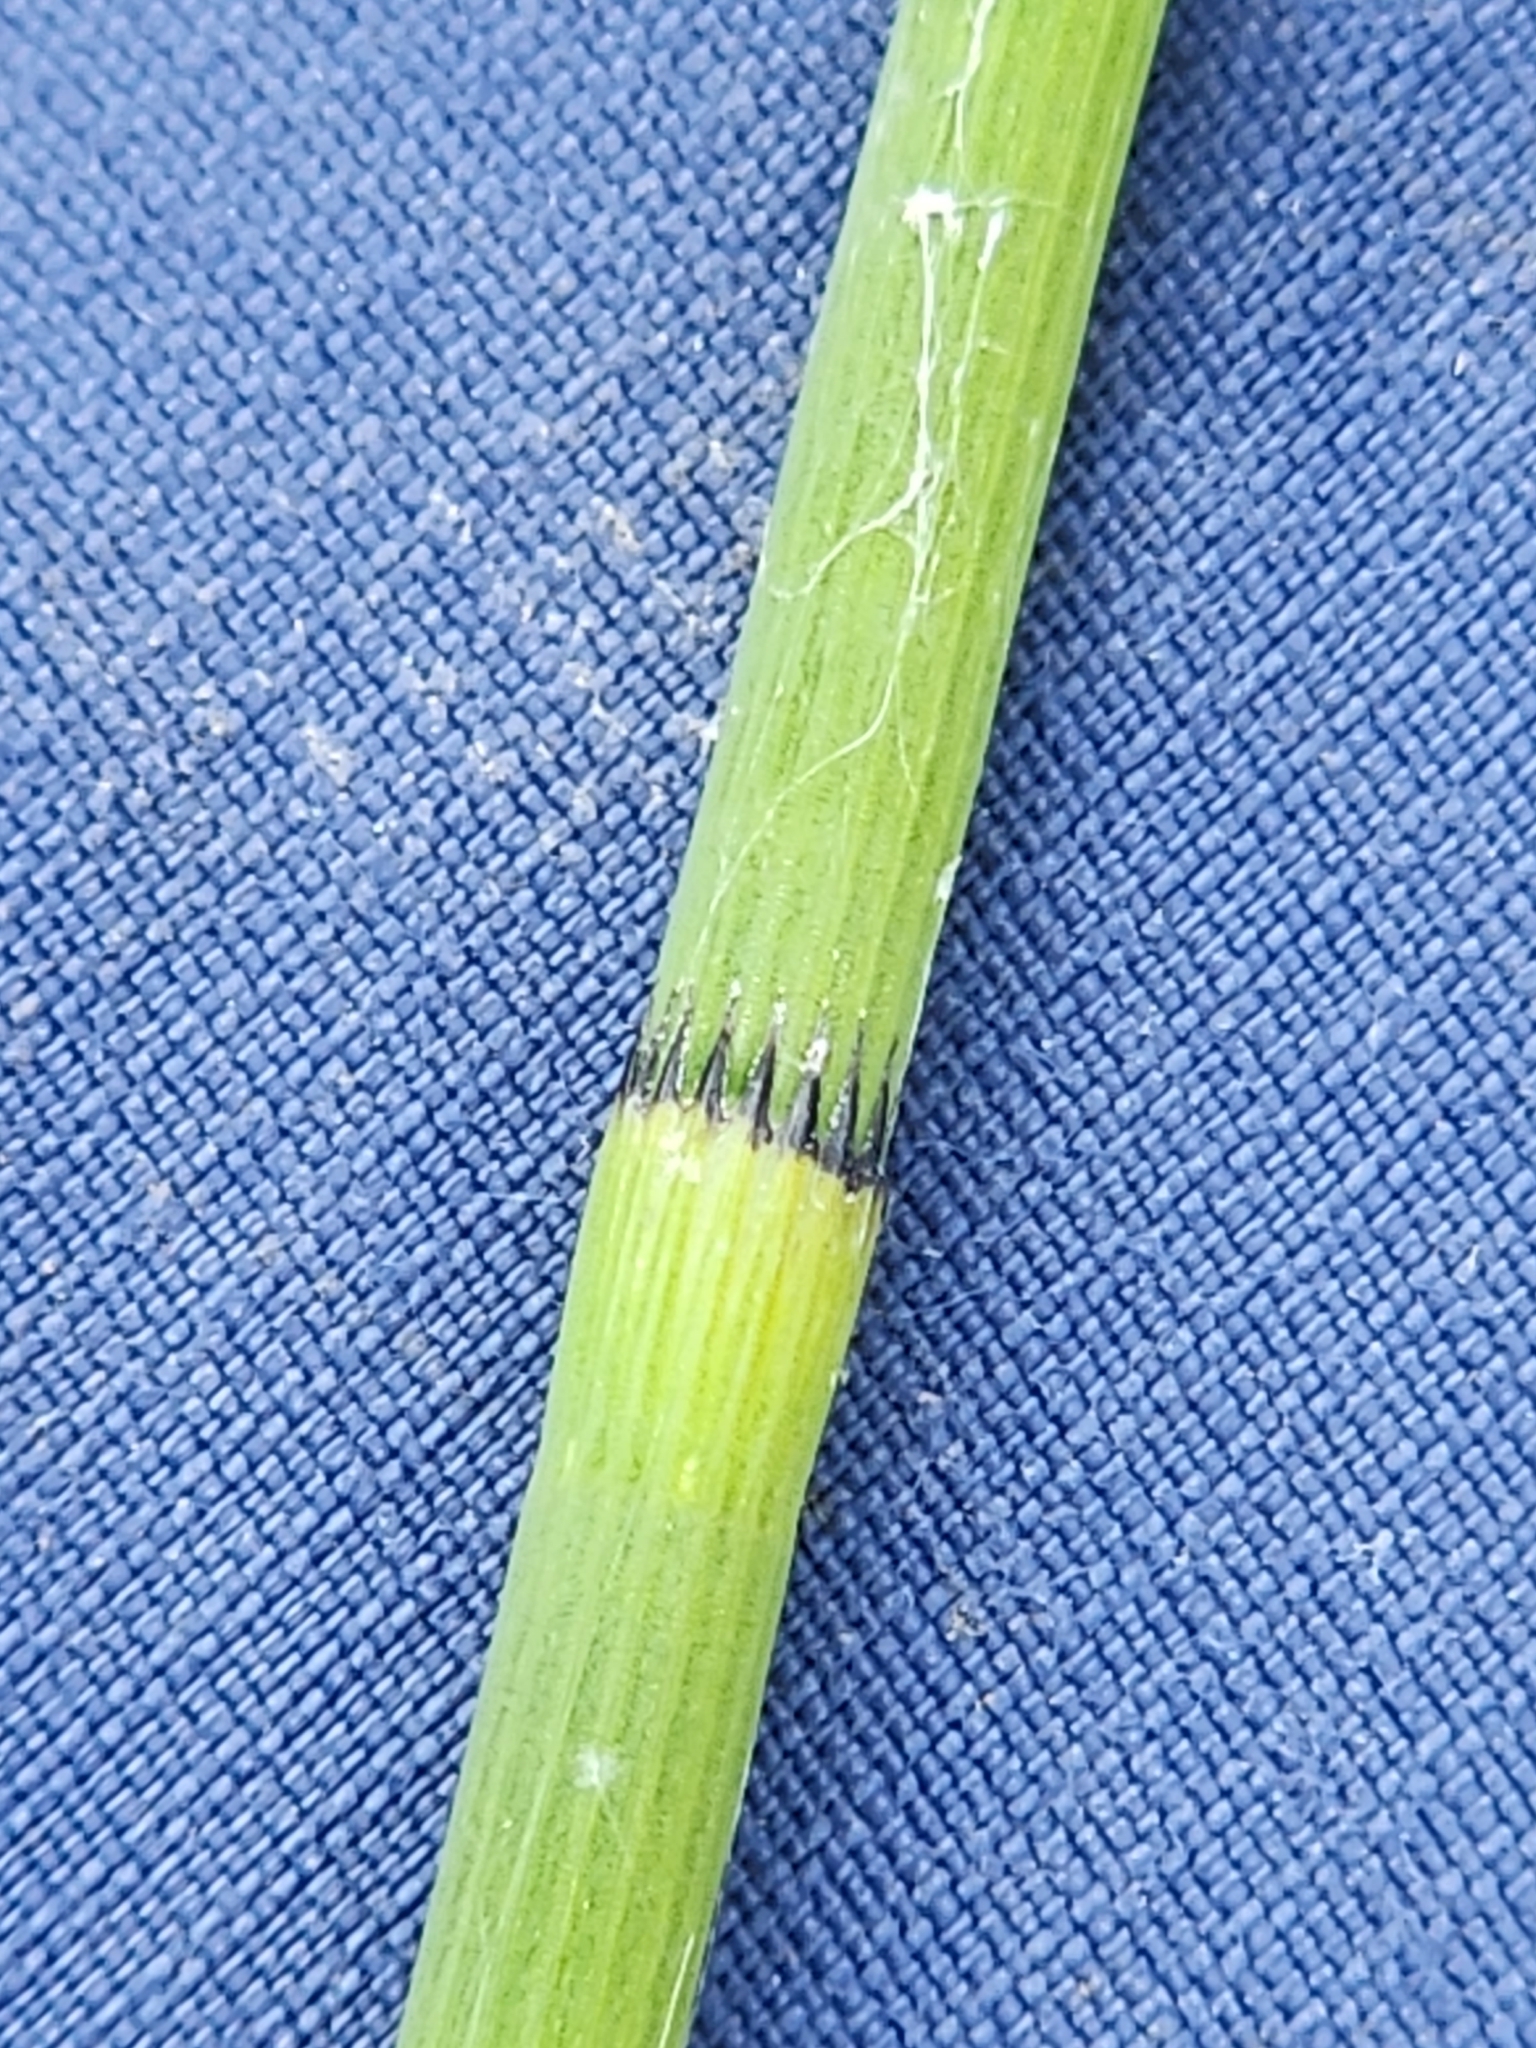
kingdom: Plantae
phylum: Tracheophyta
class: Polypodiopsida
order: Equisetales
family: Equisetaceae
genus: Equisetum
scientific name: Equisetum fluviatile
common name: Water horsetail
